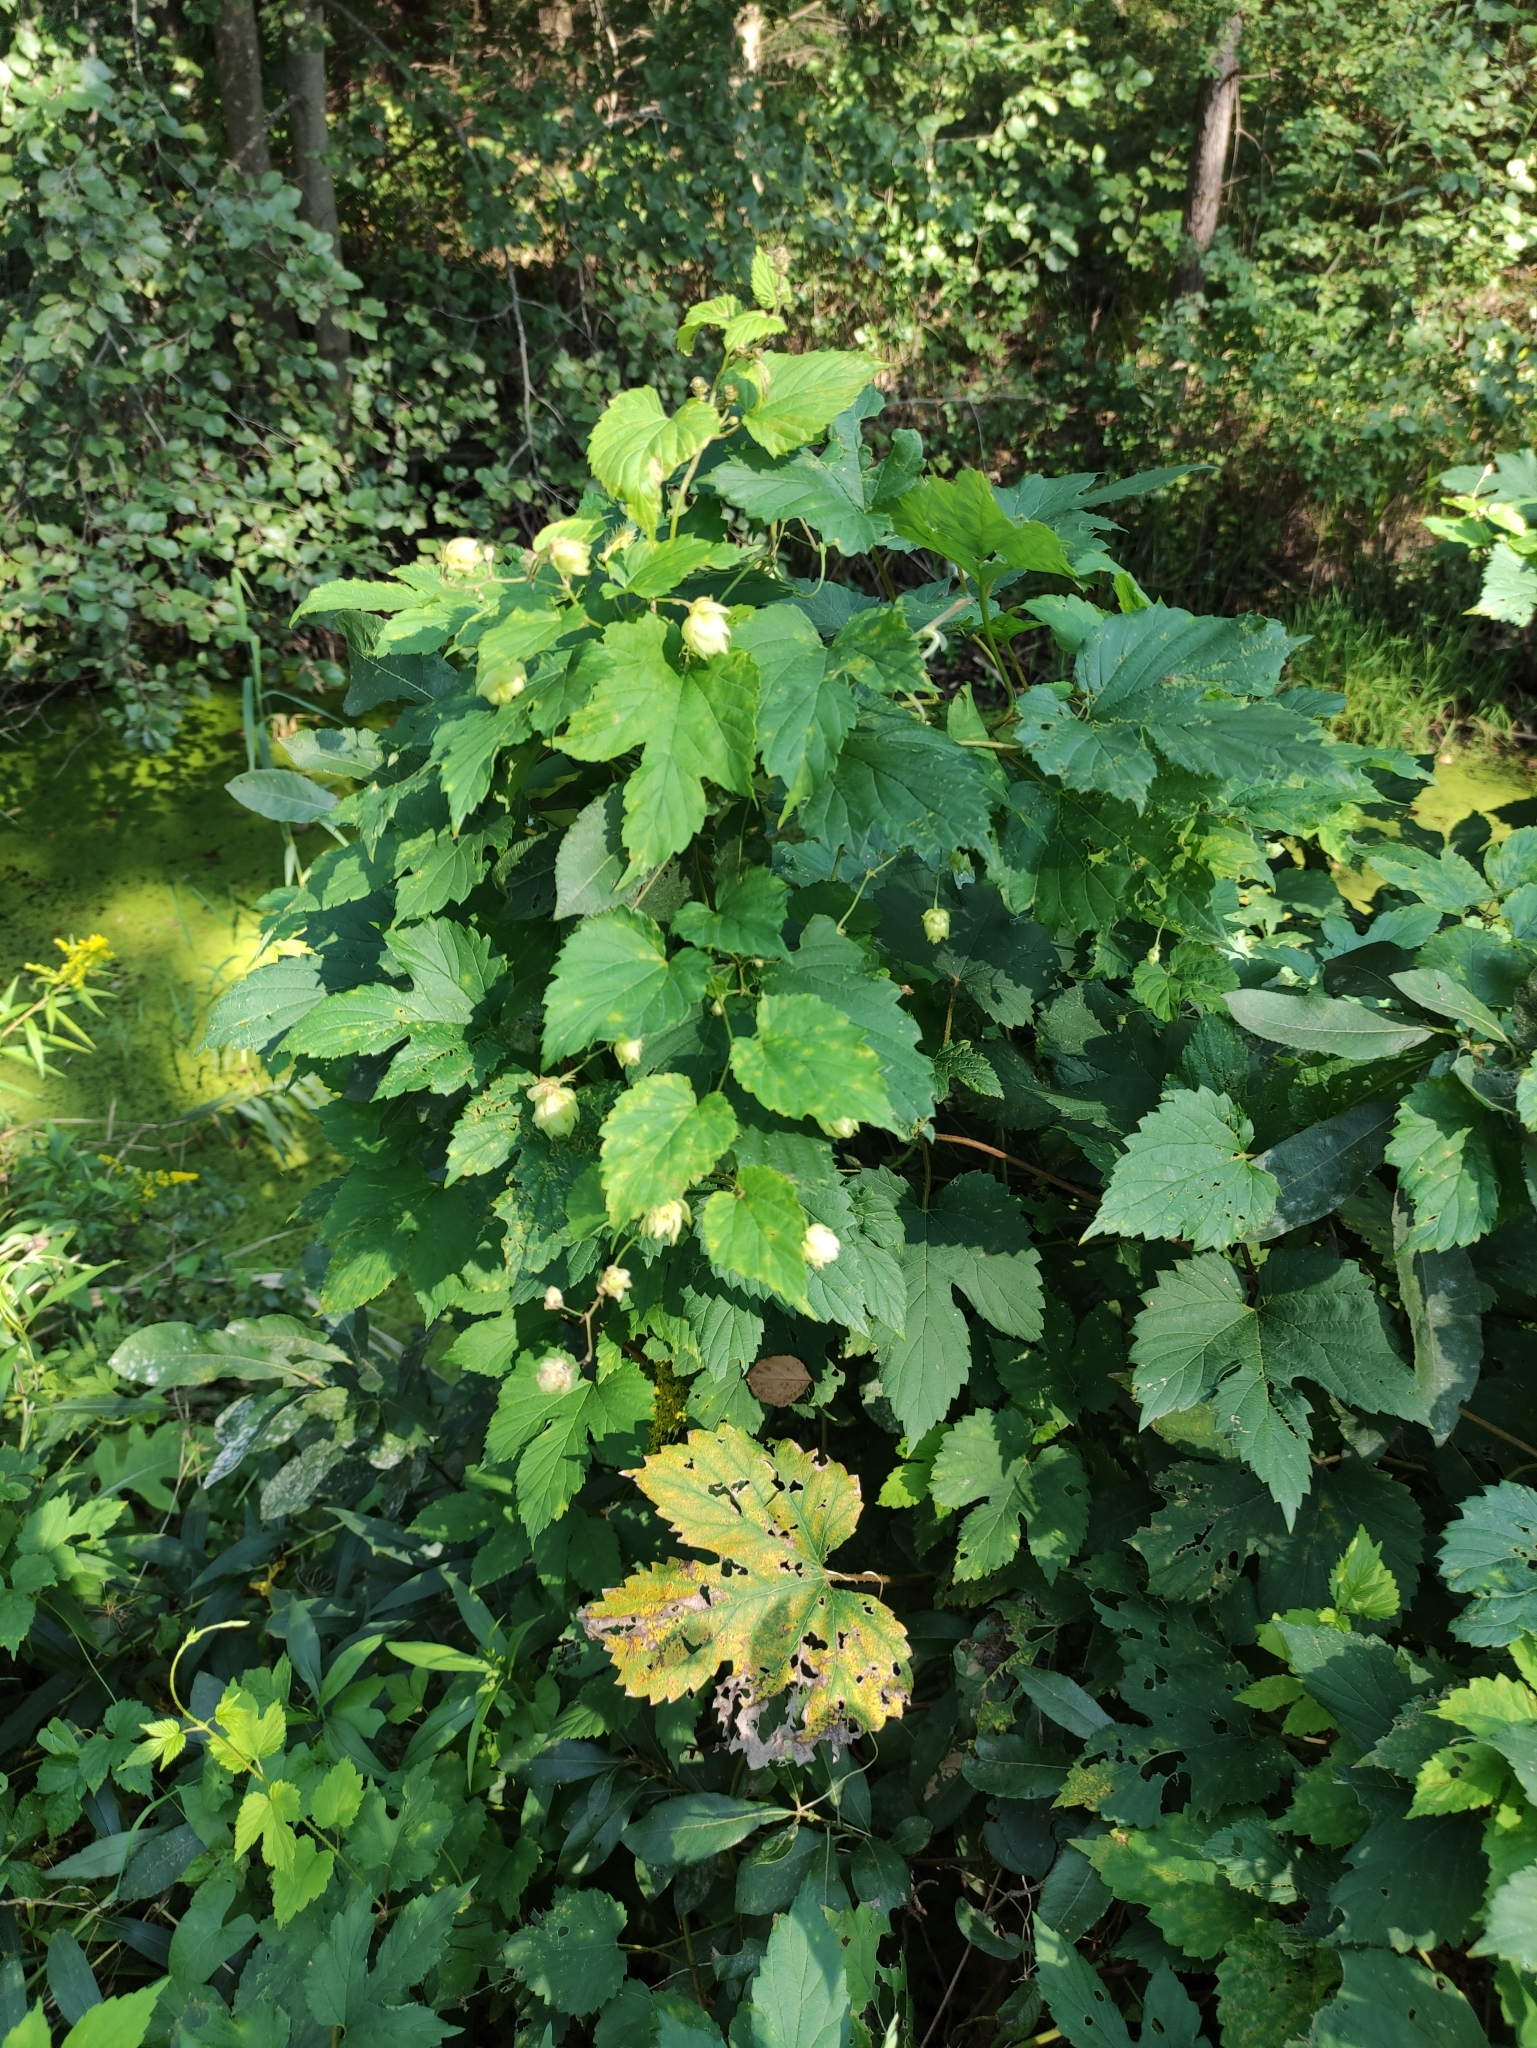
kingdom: Plantae
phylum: Tracheophyta
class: Magnoliopsida
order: Rosales
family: Cannabaceae
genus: Humulus
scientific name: Humulus lupulus
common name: Hop
